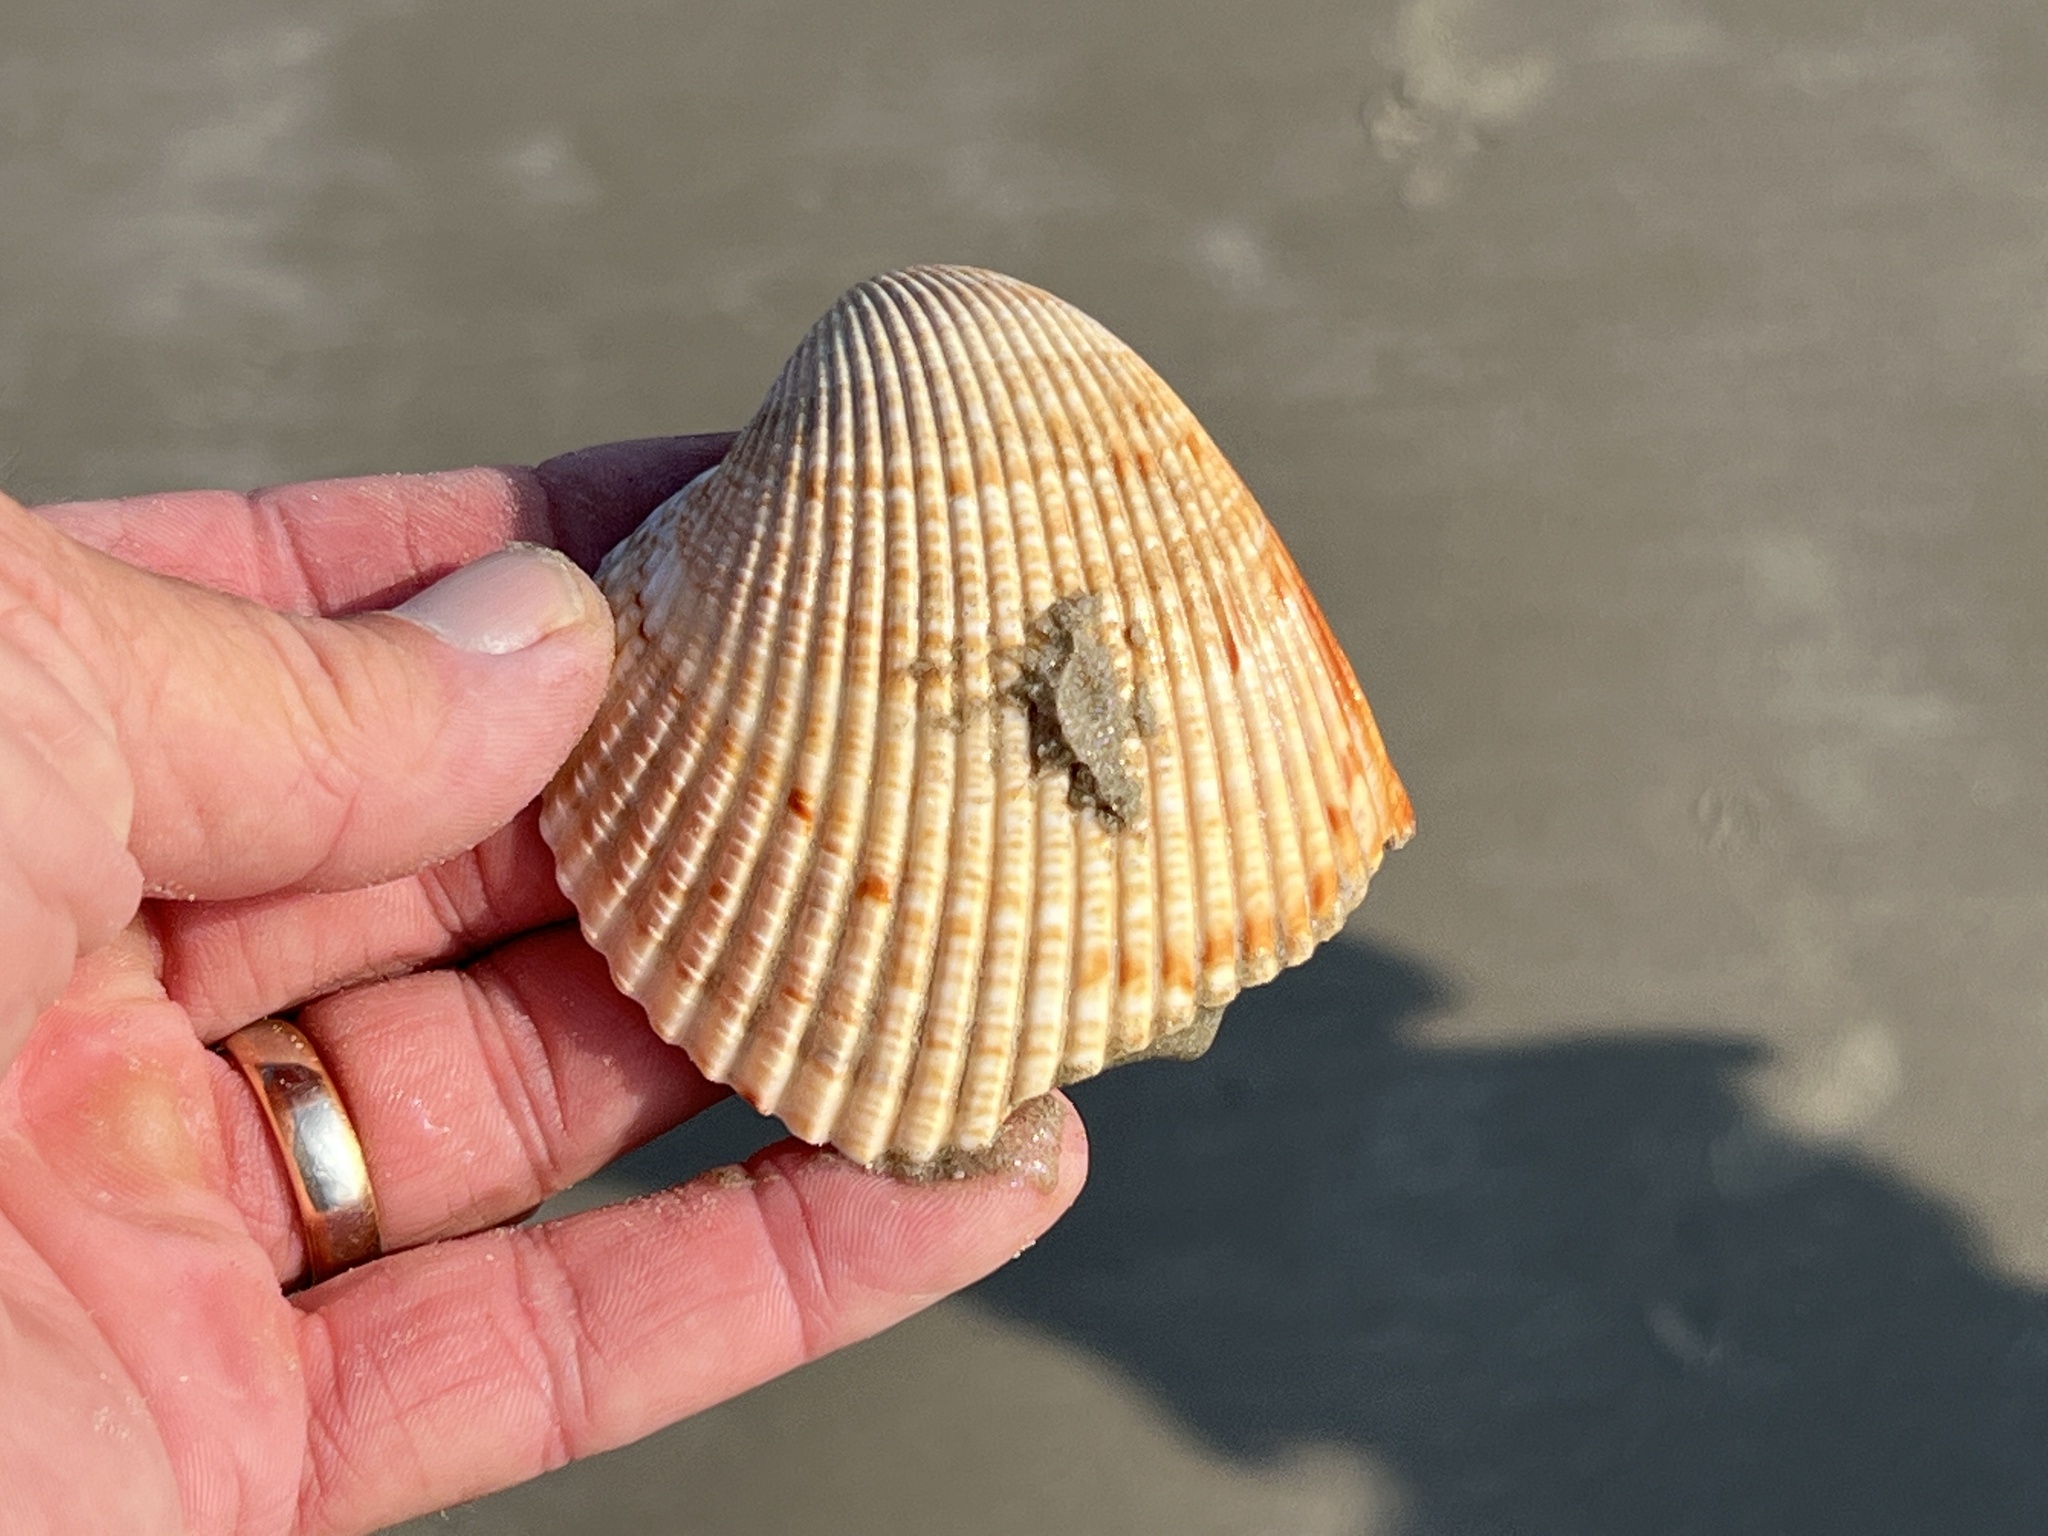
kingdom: Animalia
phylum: Mollusca
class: Bivalvia
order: Cardiida
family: Cardiidae
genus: Dinocardium
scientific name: Dinocardium robustum
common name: Atlantic giant cockle
